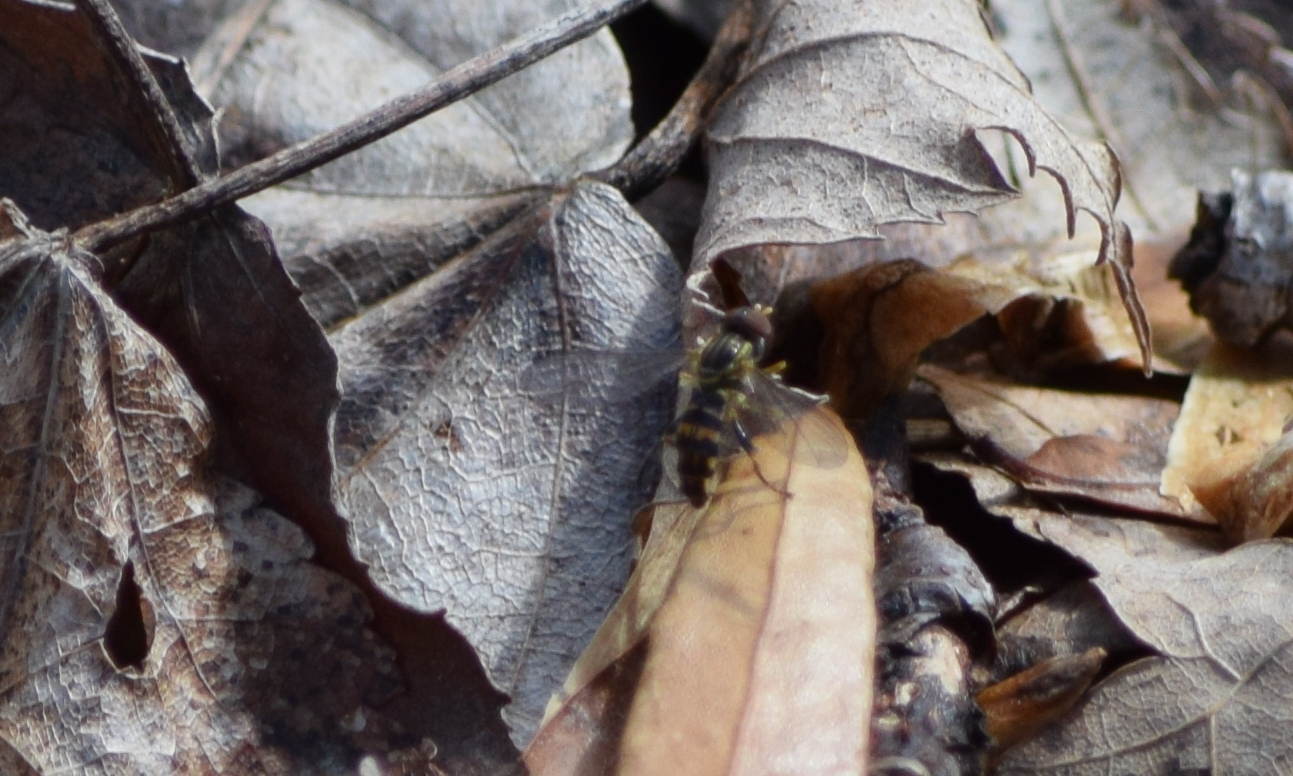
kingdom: Animalia
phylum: Arthropoda
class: Insecta
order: Diptera
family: Syrphidae
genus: Toxomerus
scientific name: Toxomerus geminatus
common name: Eastern calligrapher
